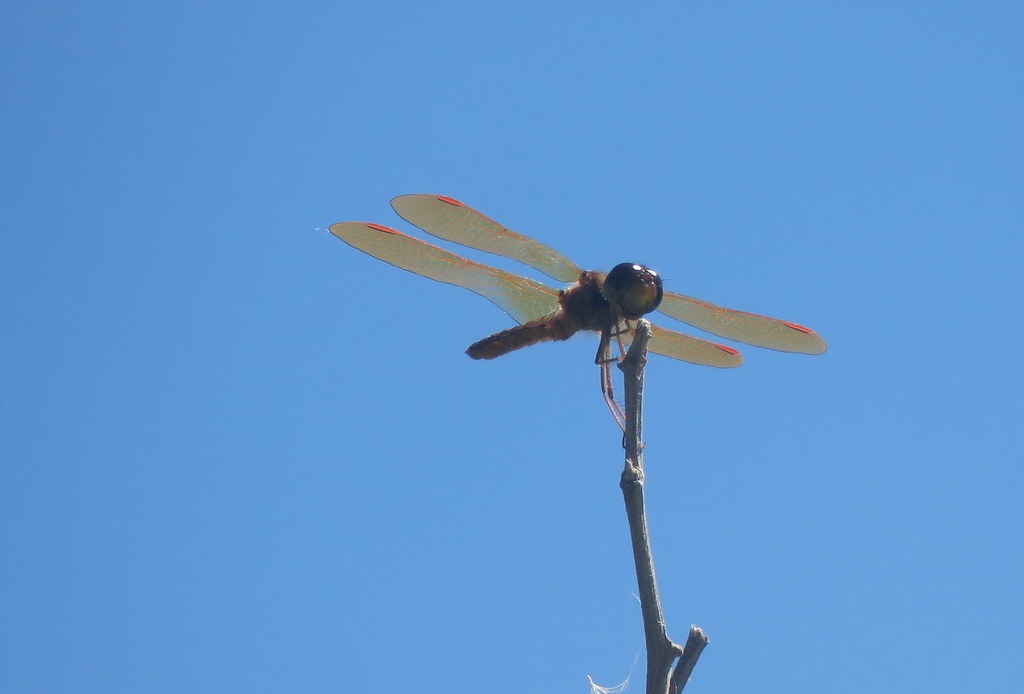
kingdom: Animalia
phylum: Arthropoda
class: Insecta
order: Odonata
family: Libellulidae
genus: Perithemis
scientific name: Perithemis tenera
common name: Eastern amberwing
